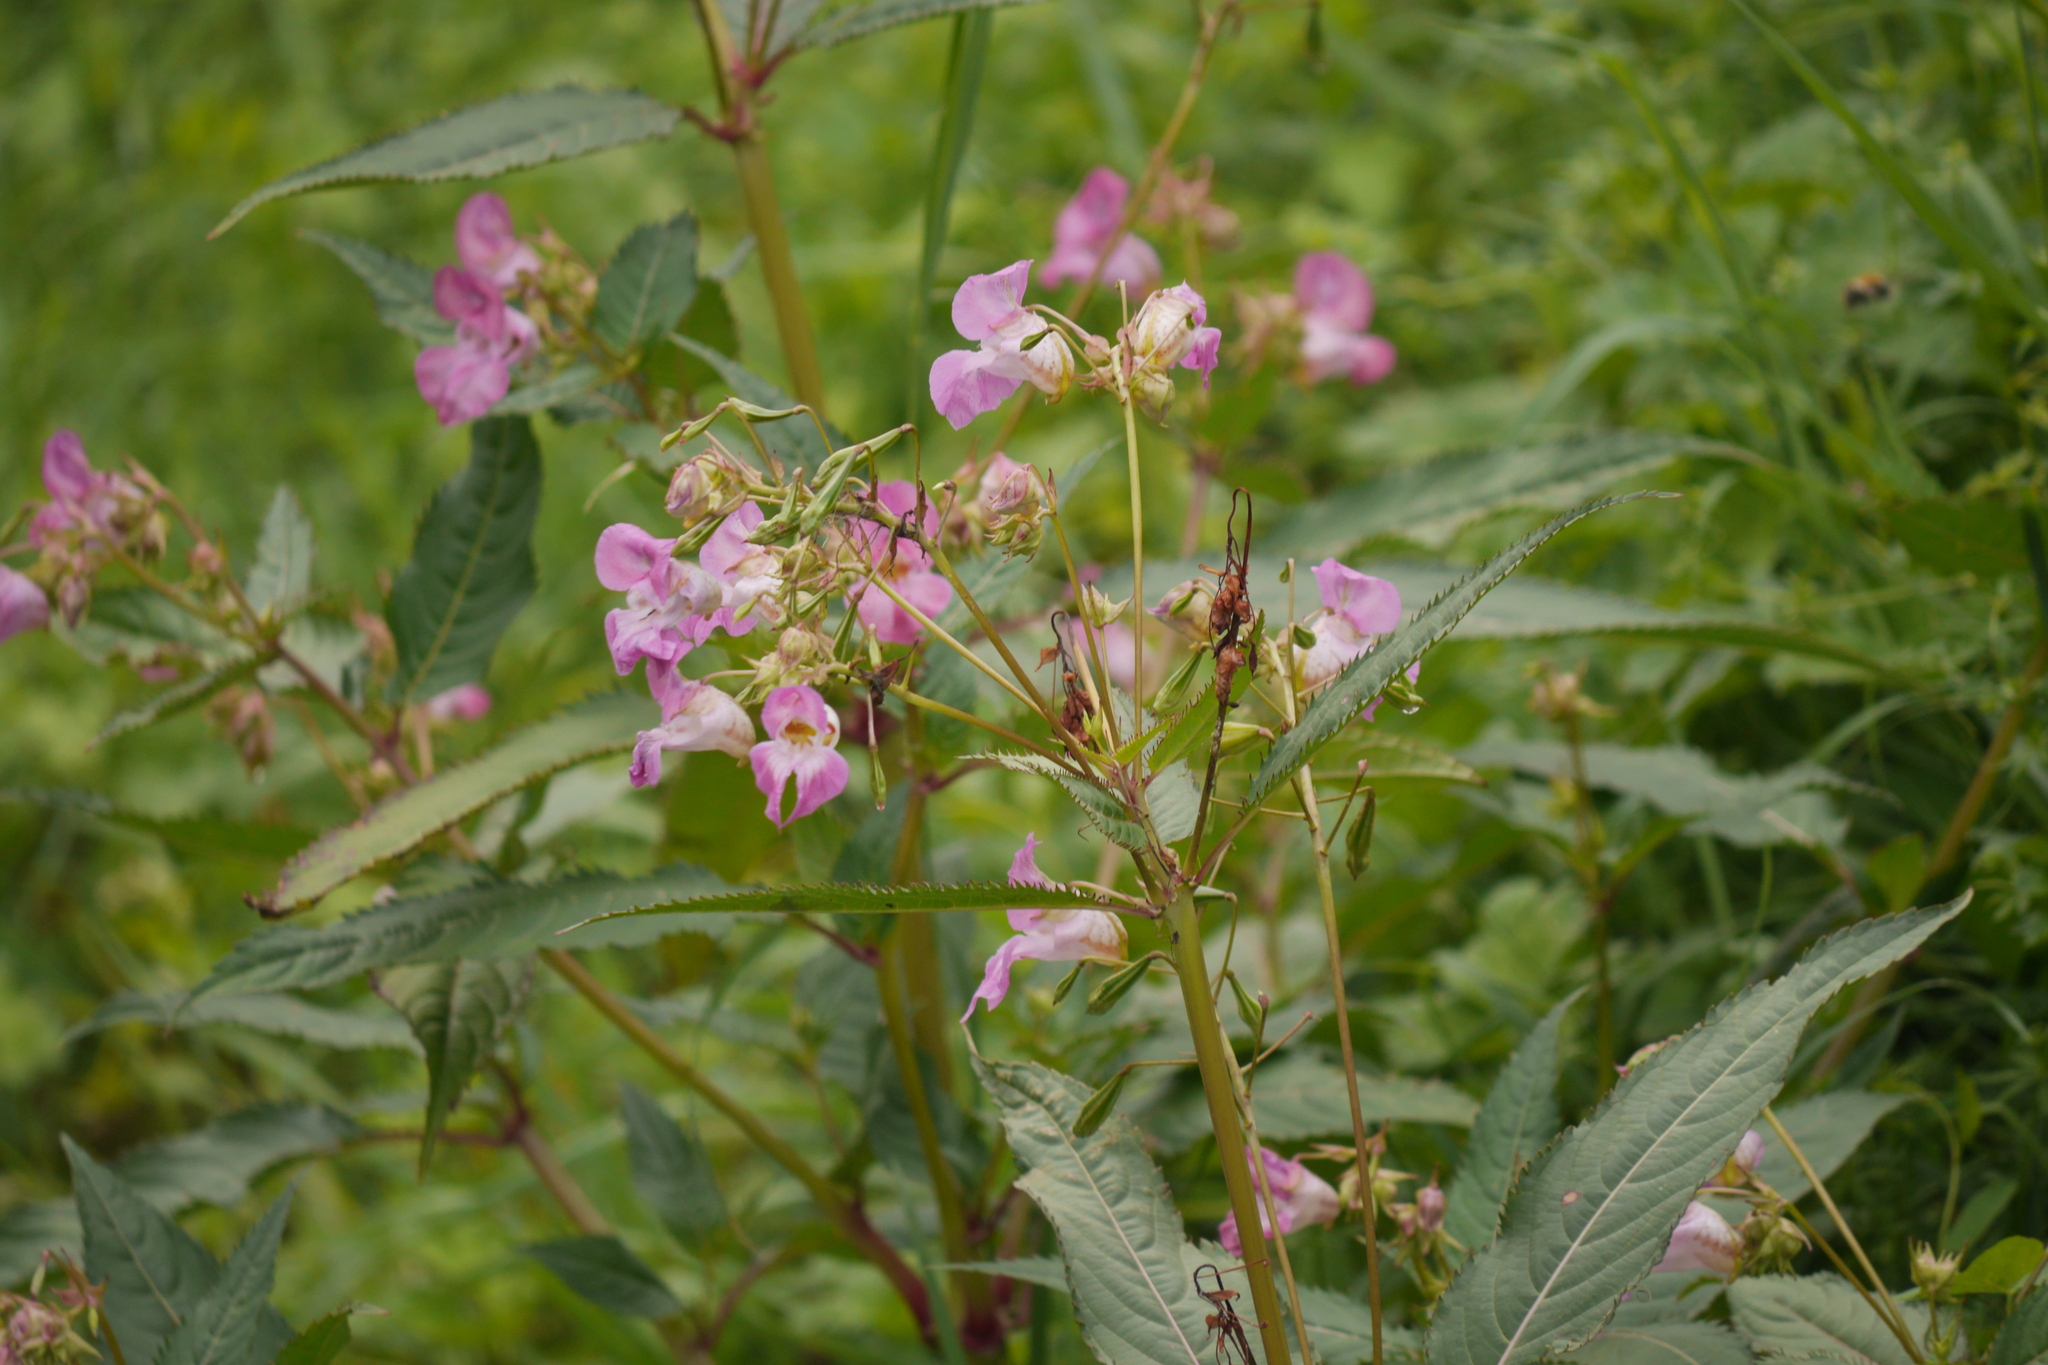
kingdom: Plantae
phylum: Tracheophyta
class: Magnoliopsida
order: Ericales
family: Balsaminaceae
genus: Impatiens
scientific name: Impatiens glandulifera
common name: Himalayan balsam
